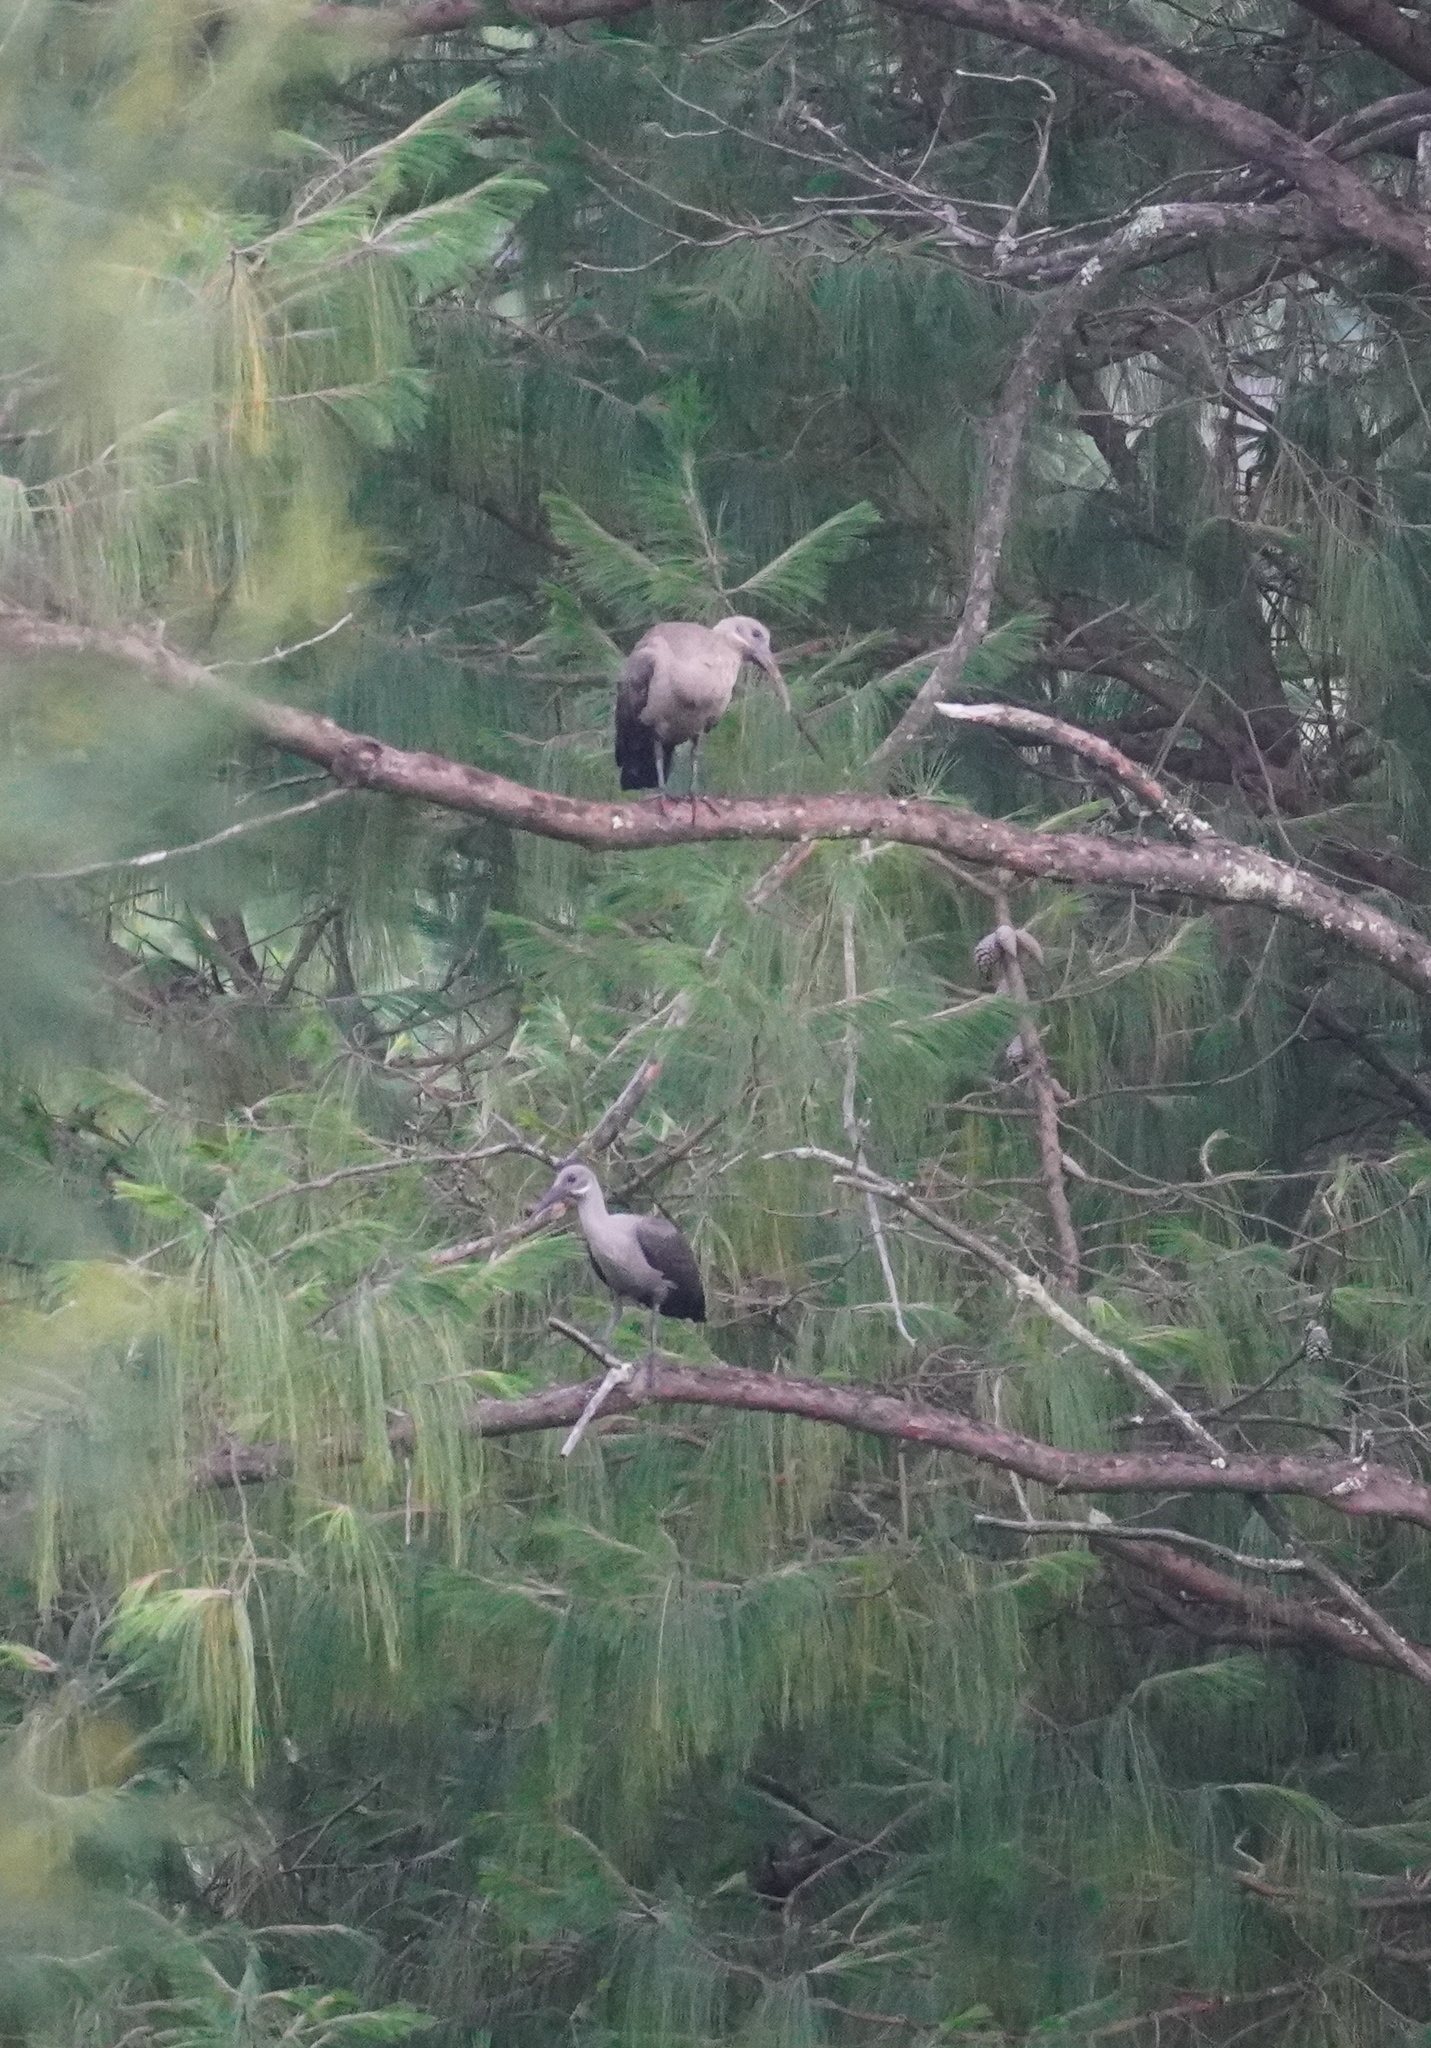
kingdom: Animalia
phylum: Chordata
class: Aves
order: Pelecaniformes
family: Threskiornithidae
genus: Bostrychia
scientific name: Bostrychia hagedash
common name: Hadada ibis
